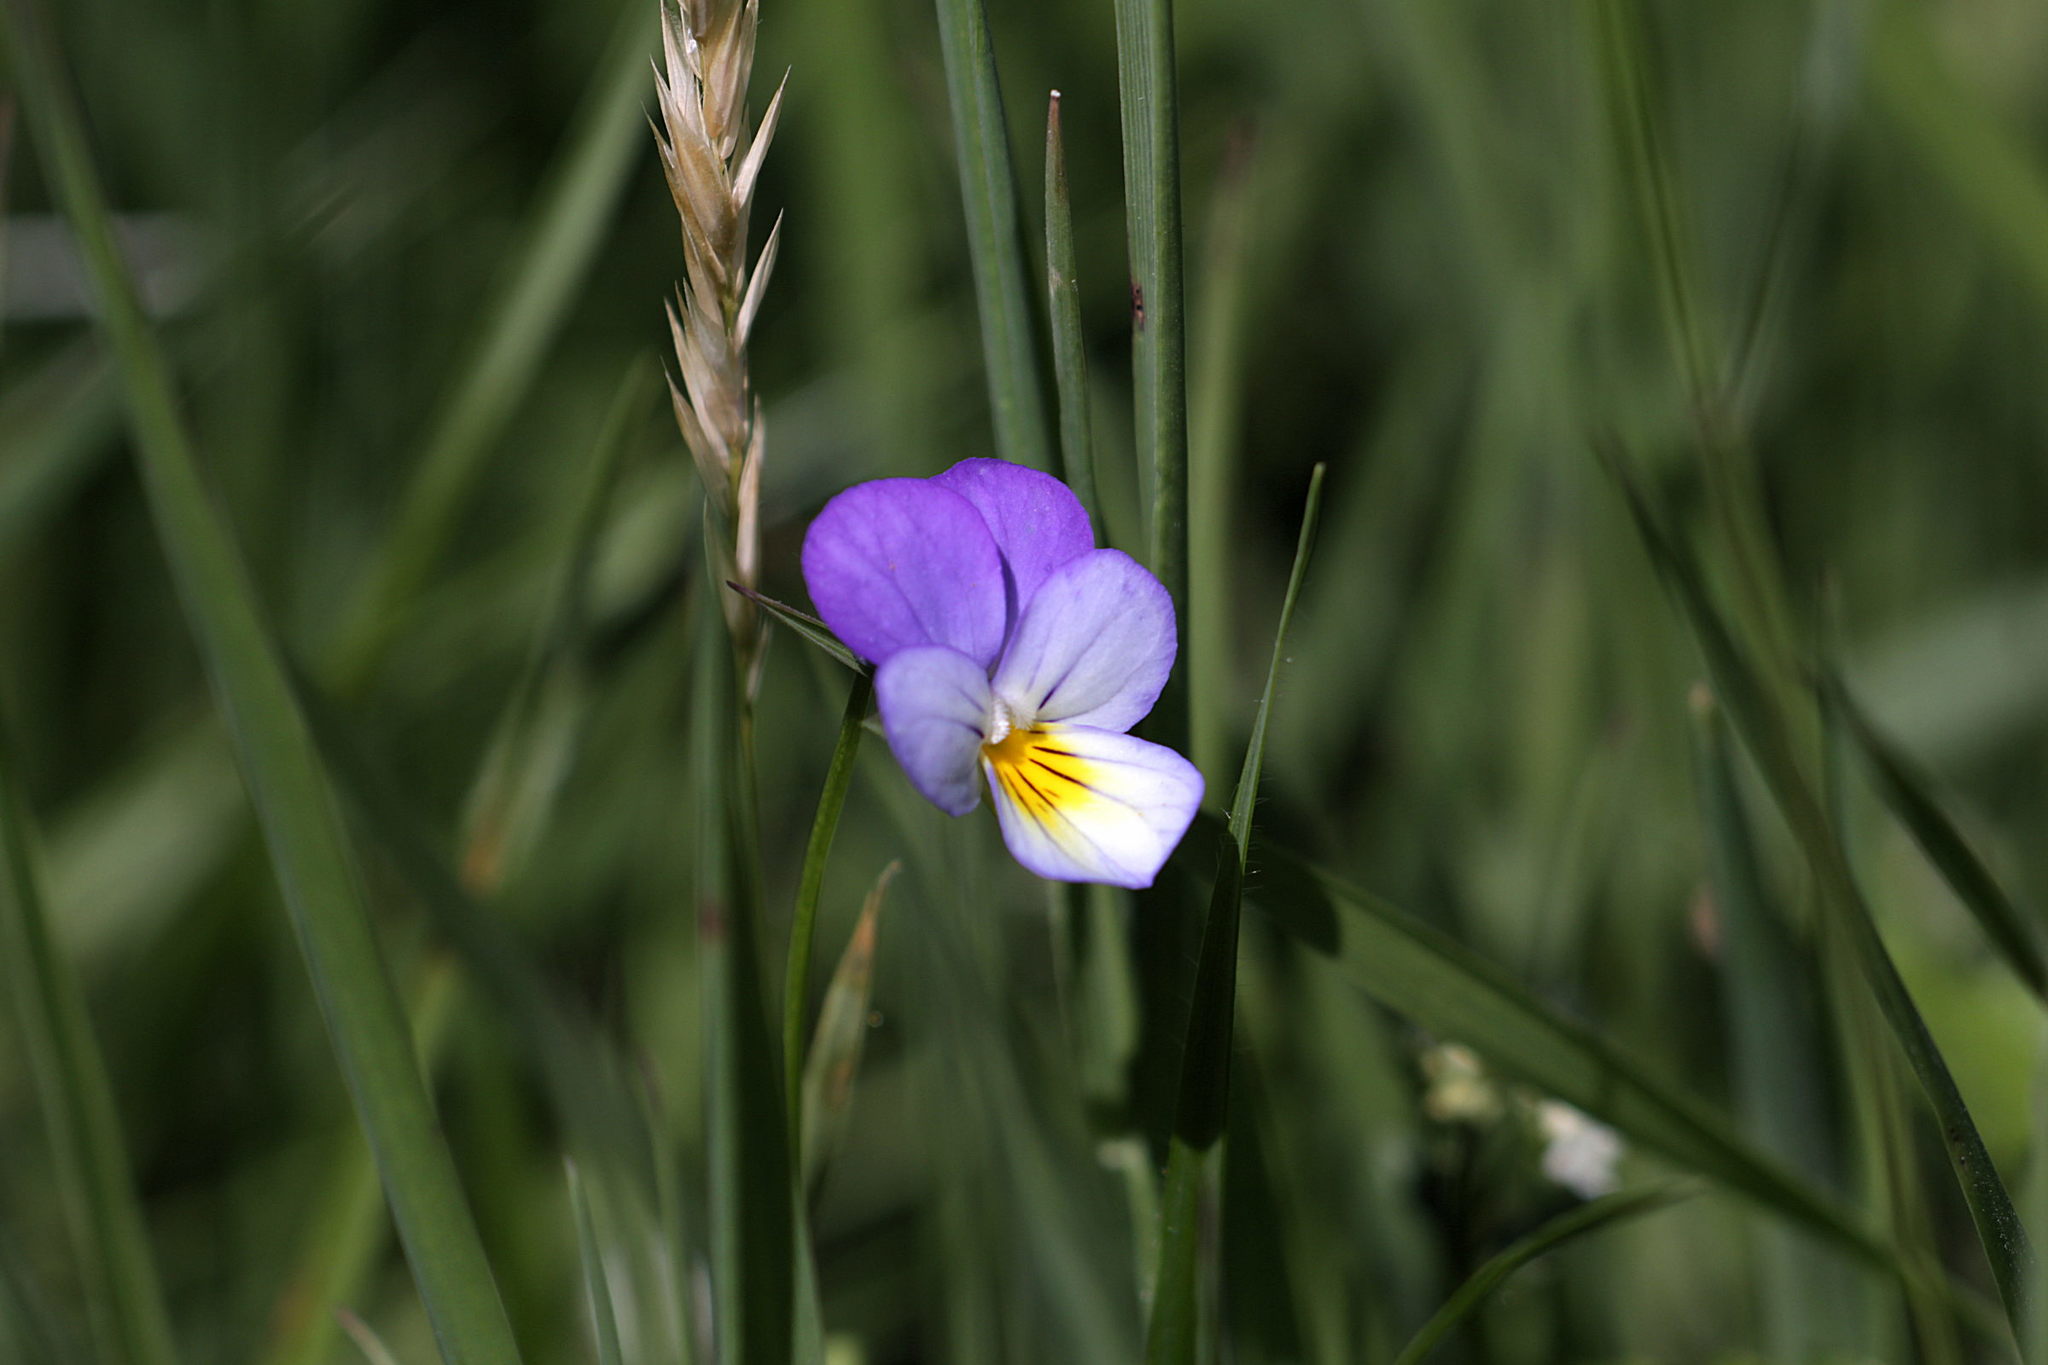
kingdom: Plantae
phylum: Tracheophyta
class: Magnoliopsida
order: Malpighiales
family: Violaceae
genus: Viola
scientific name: Viola tricolor
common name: Pansy
